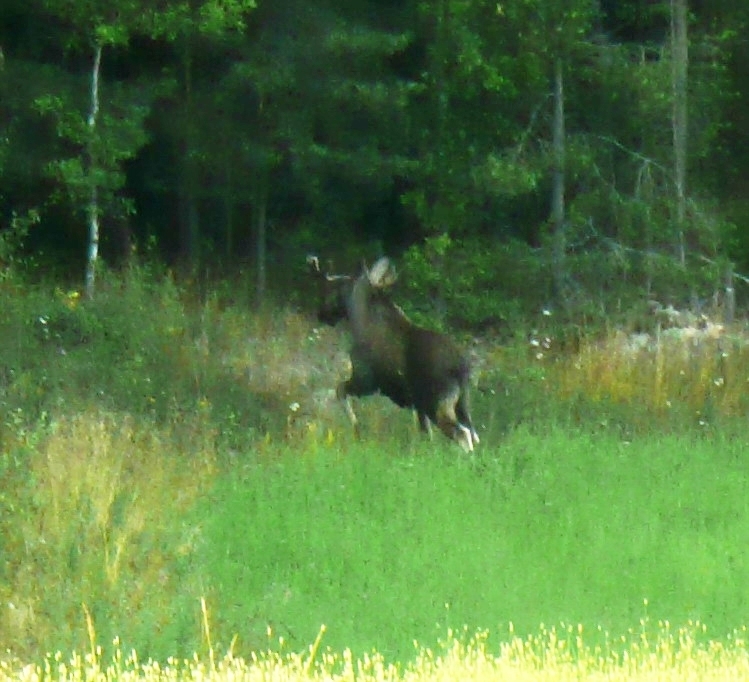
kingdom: Animalia
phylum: Chordata
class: Mammalia
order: Artiodactyla
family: Cervidae
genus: Alces
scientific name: Alces alces
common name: Moose
